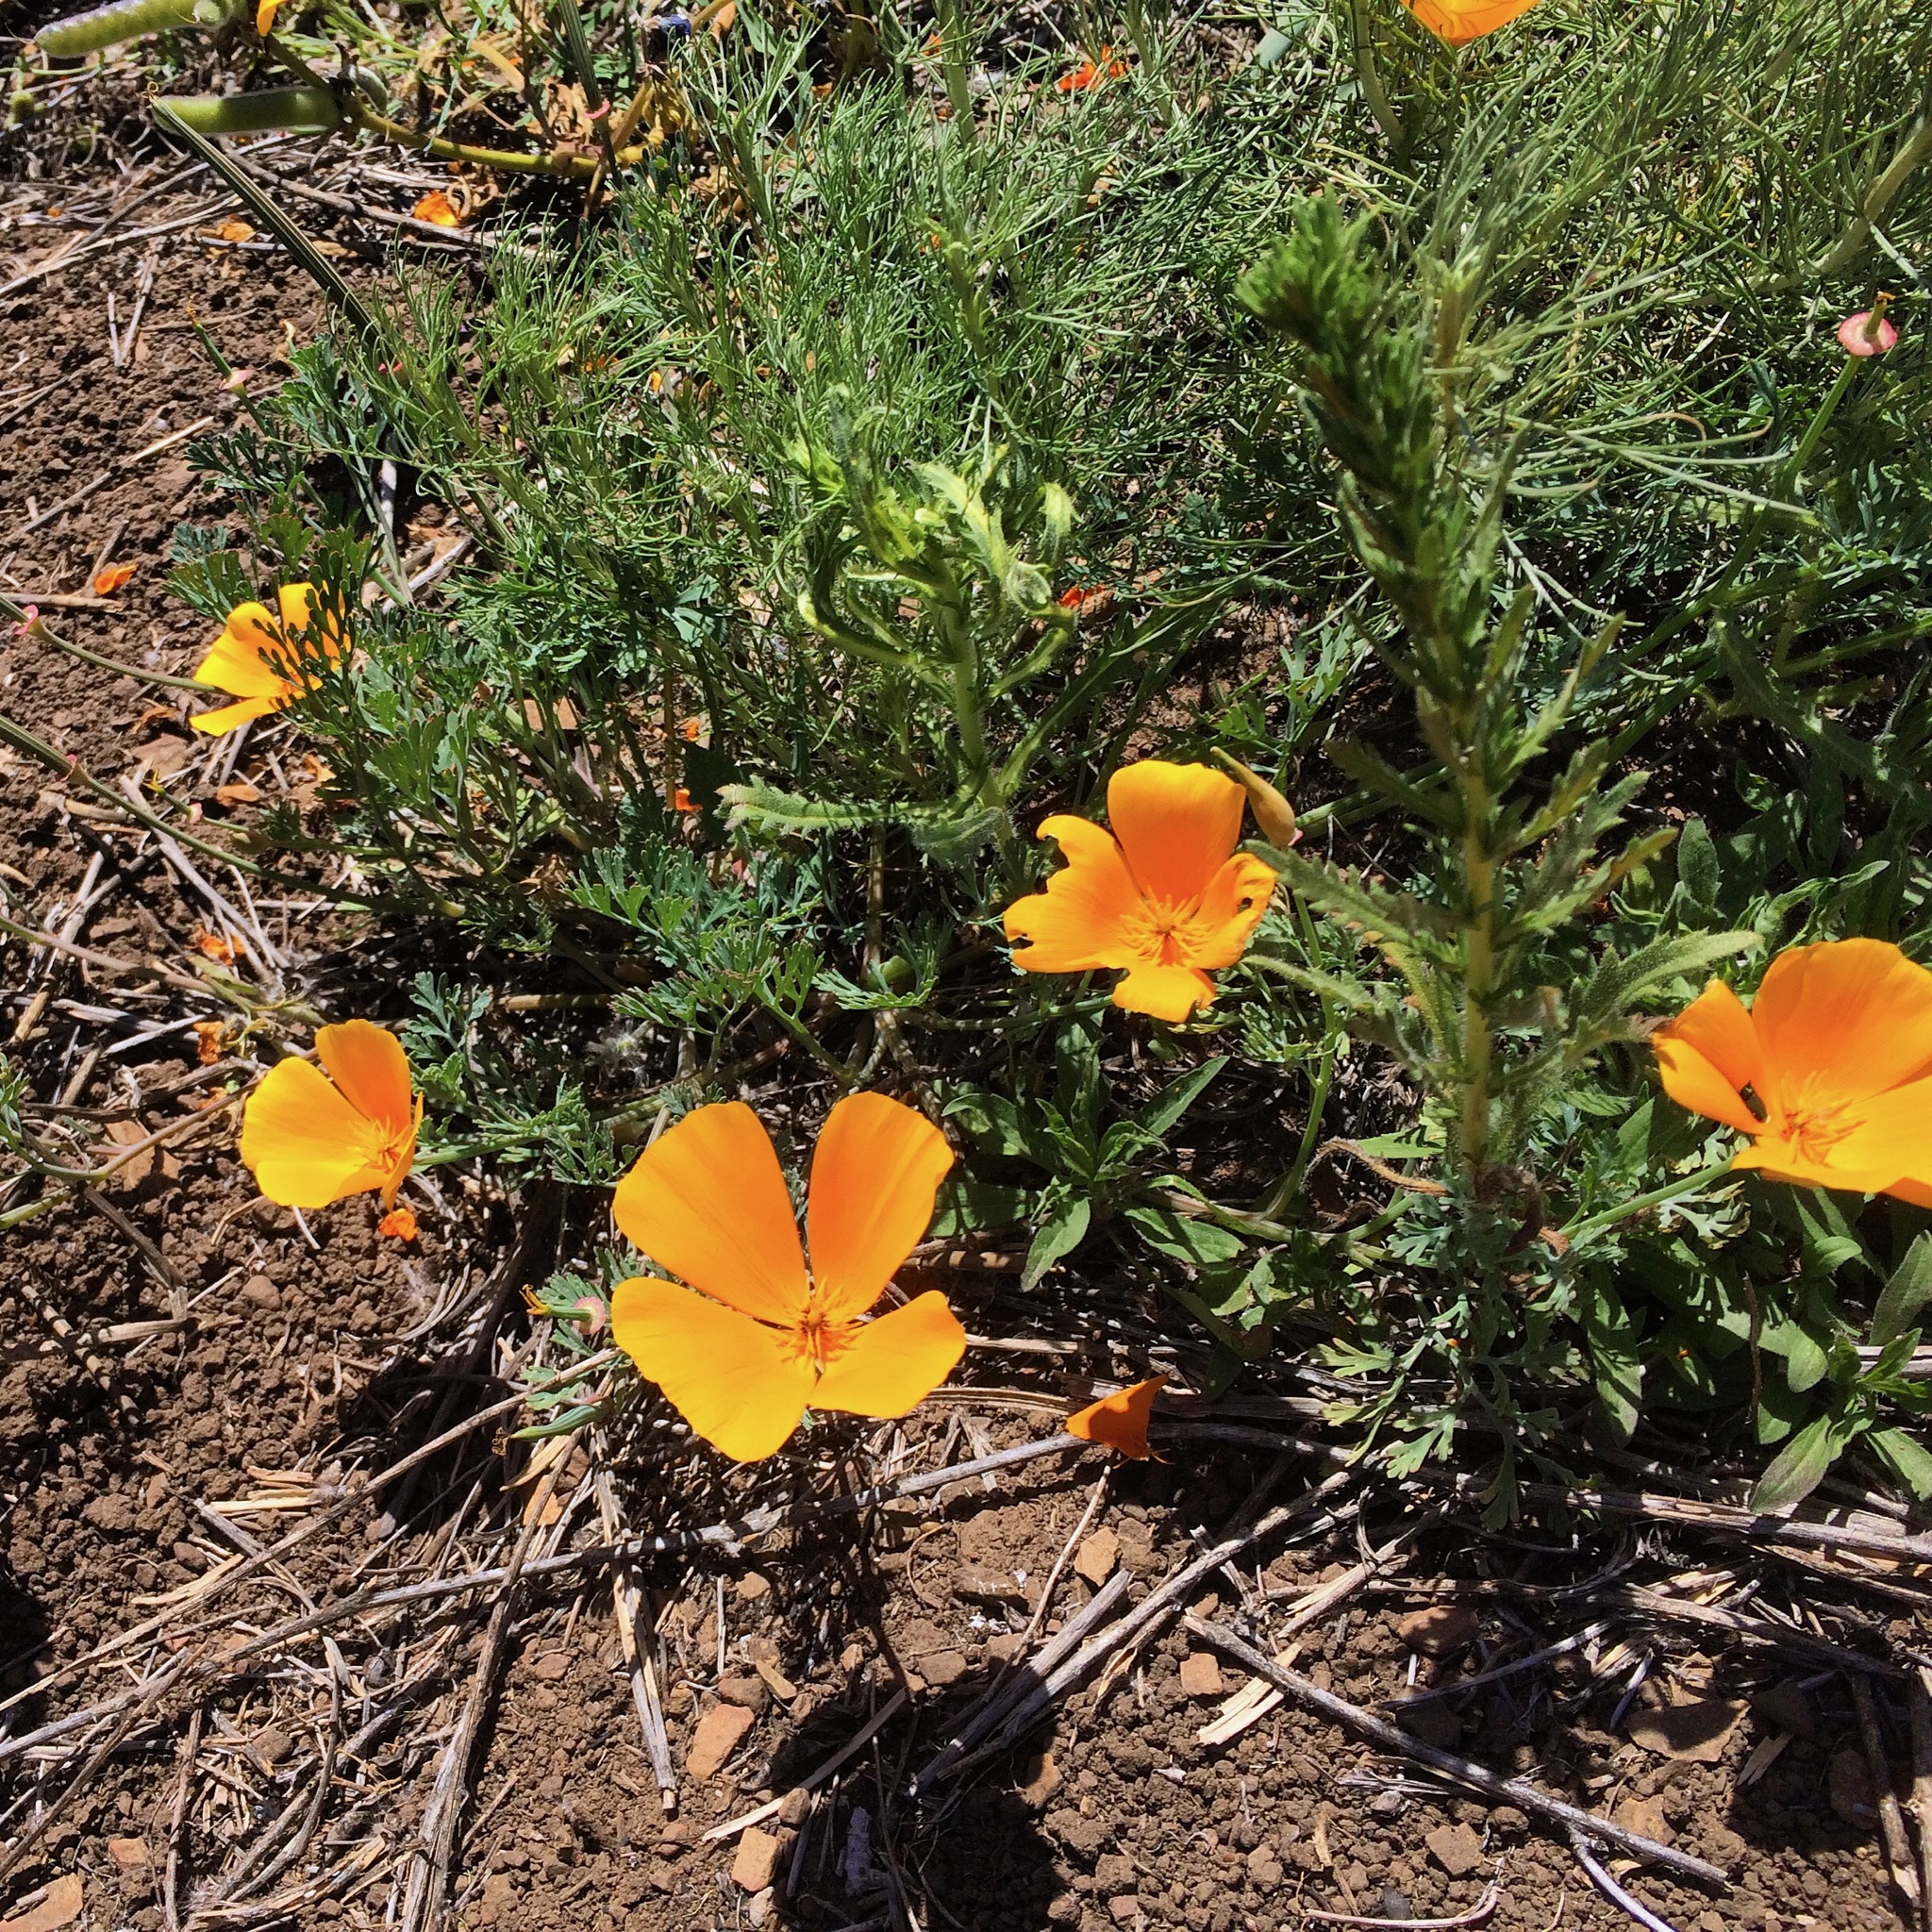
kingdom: Plantae
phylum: Tracheophyta
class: Magnoliopsida
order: Ranunculales
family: Papaveraceae
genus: Eschscholzia
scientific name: Eschscholzia californica
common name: California poppy
